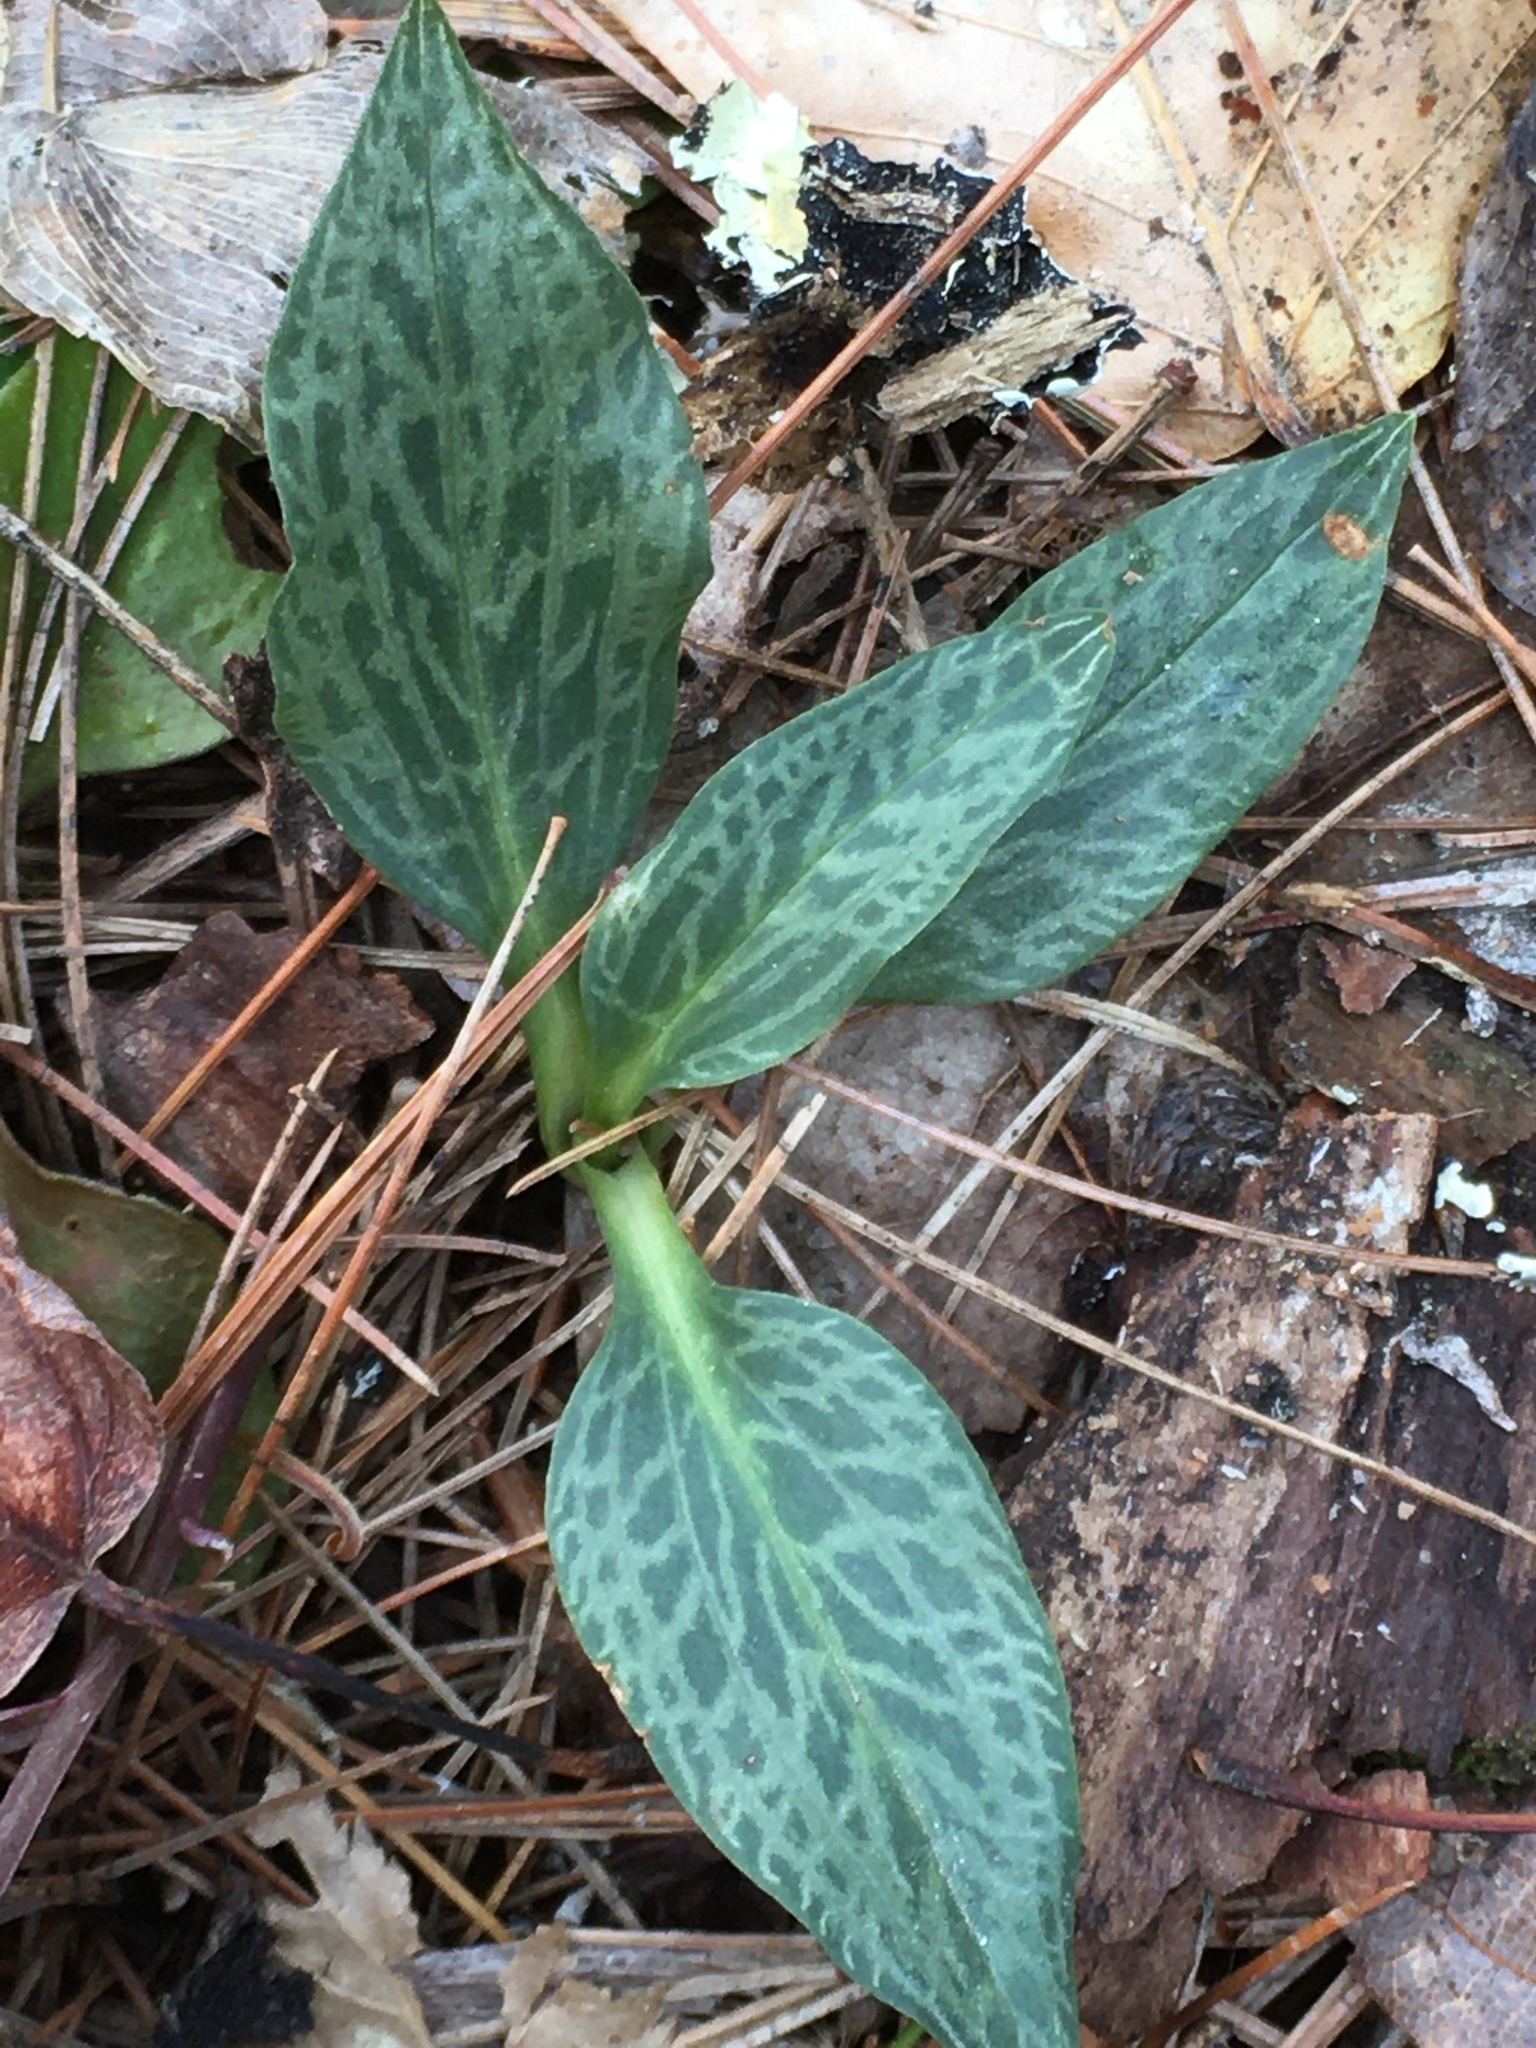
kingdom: Plantae
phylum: Tracheophyta
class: Liliopsida
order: Asparagales
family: Orchidaceae
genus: Goodyera
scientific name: Goodyera tesselata
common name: Checkered rattlesnake-plantain
